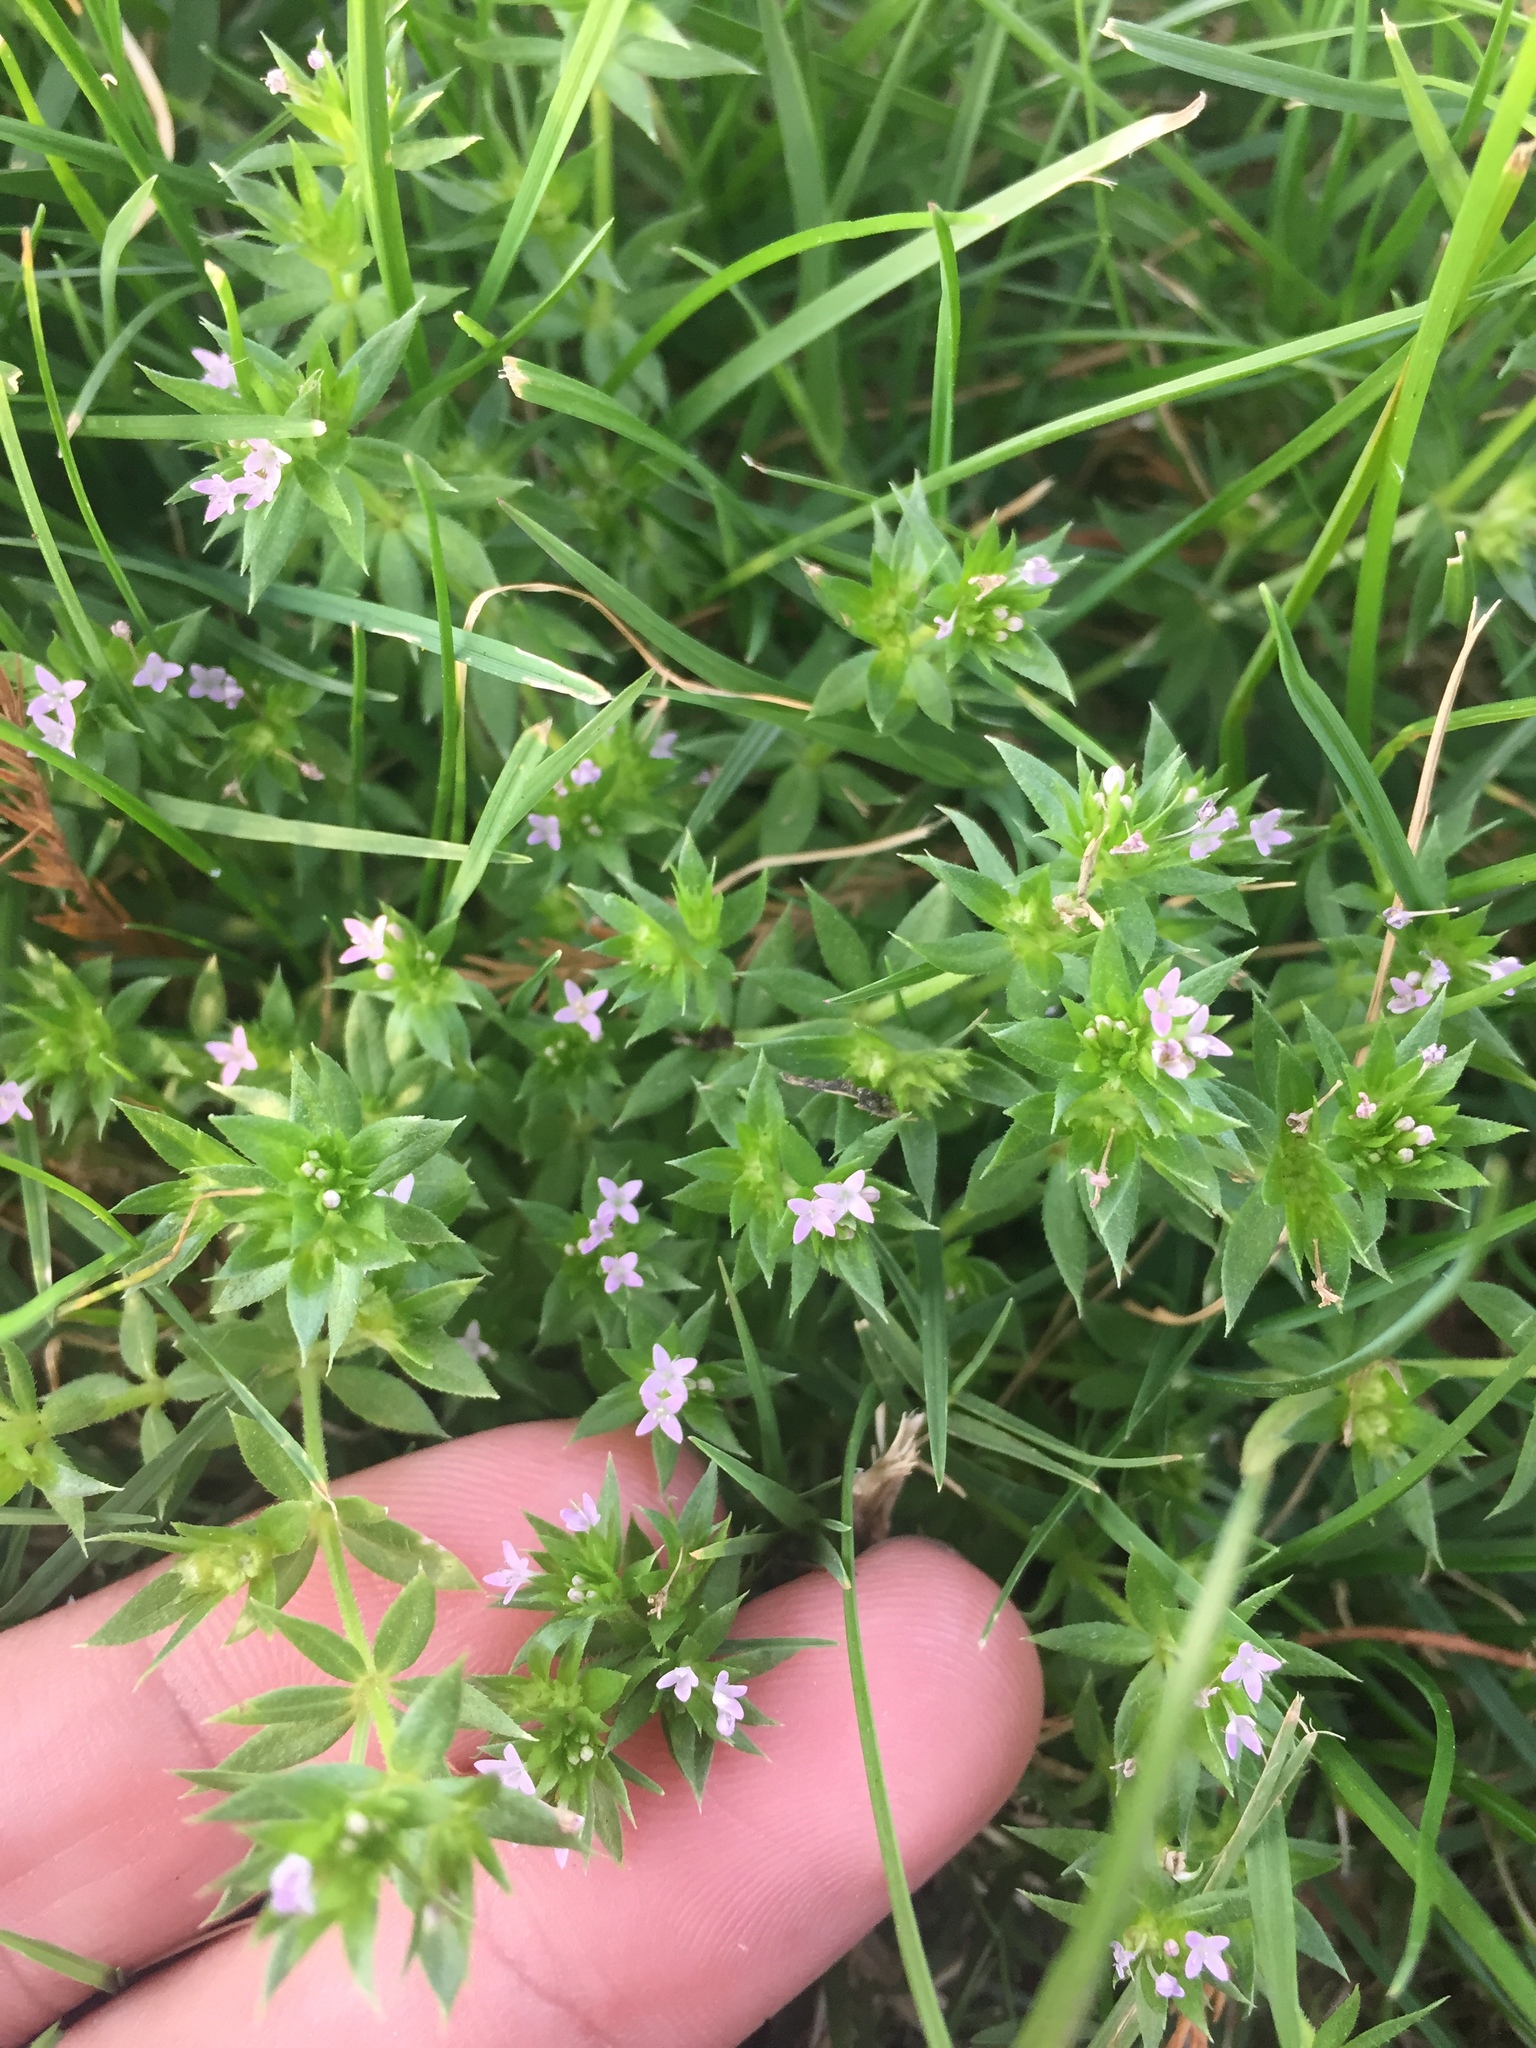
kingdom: Plantae
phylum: Tracheophyta
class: Magnoliopsida
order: Gentianales
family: Rubiaceae
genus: Sherardia
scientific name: Sherardia arvensis
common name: Field madder
